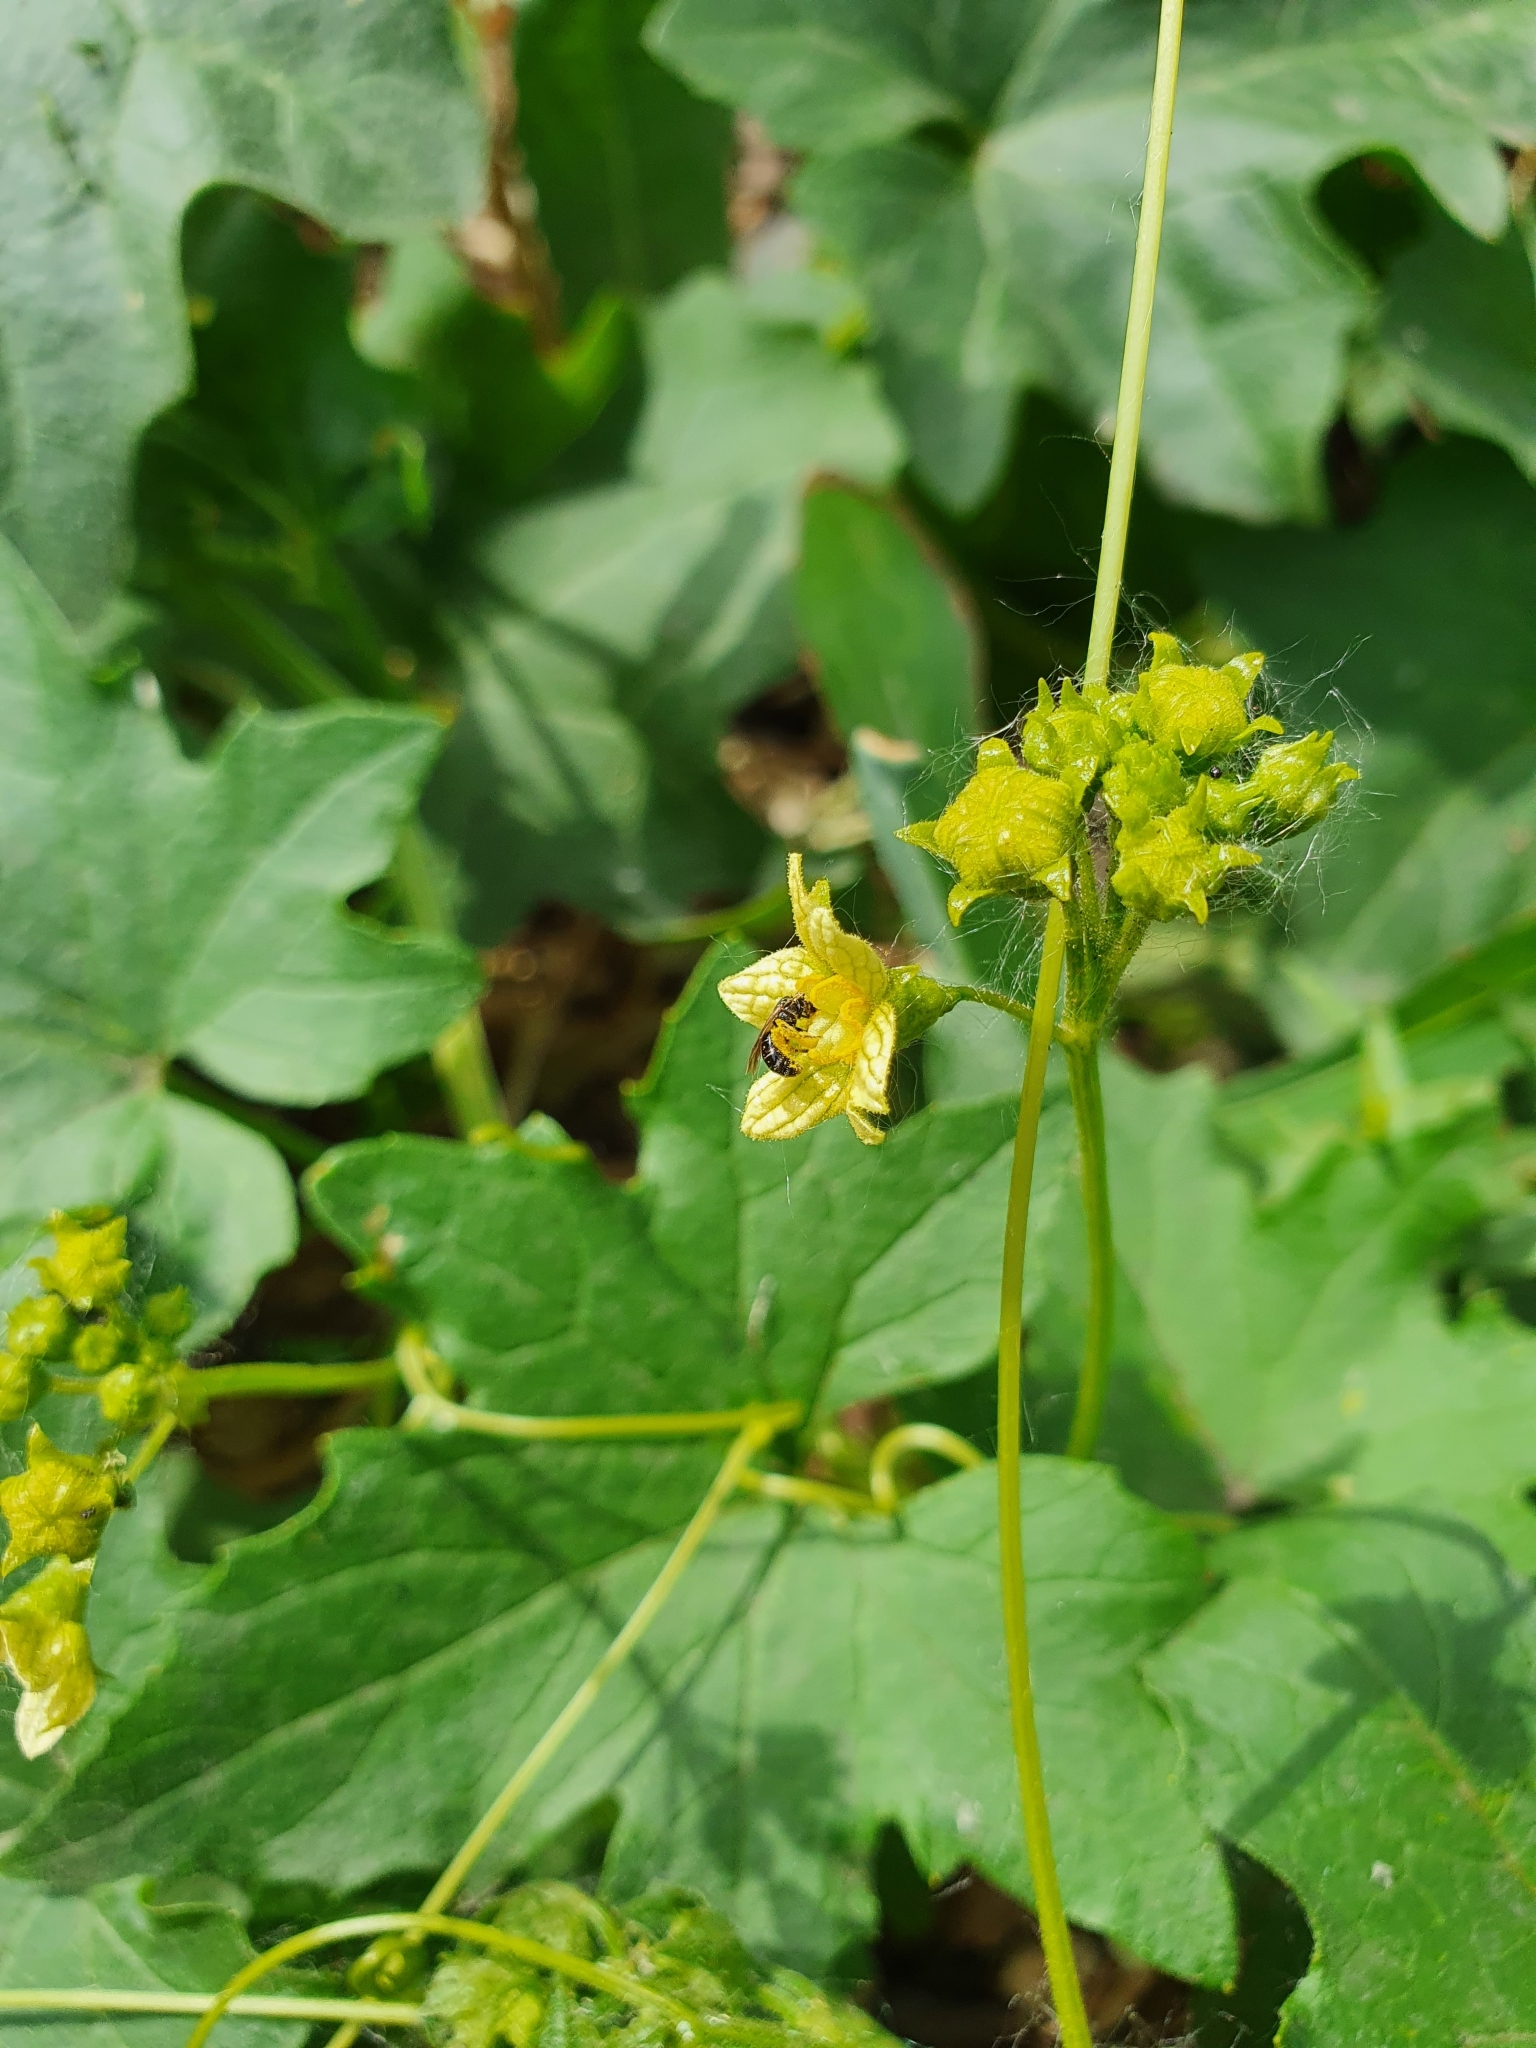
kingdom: Plantae
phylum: Tracheophyta
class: Magnoliopsida
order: Cucurbitales
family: Cucurbitaceae
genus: Bryonia
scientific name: Bryonia alba
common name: White bryony
